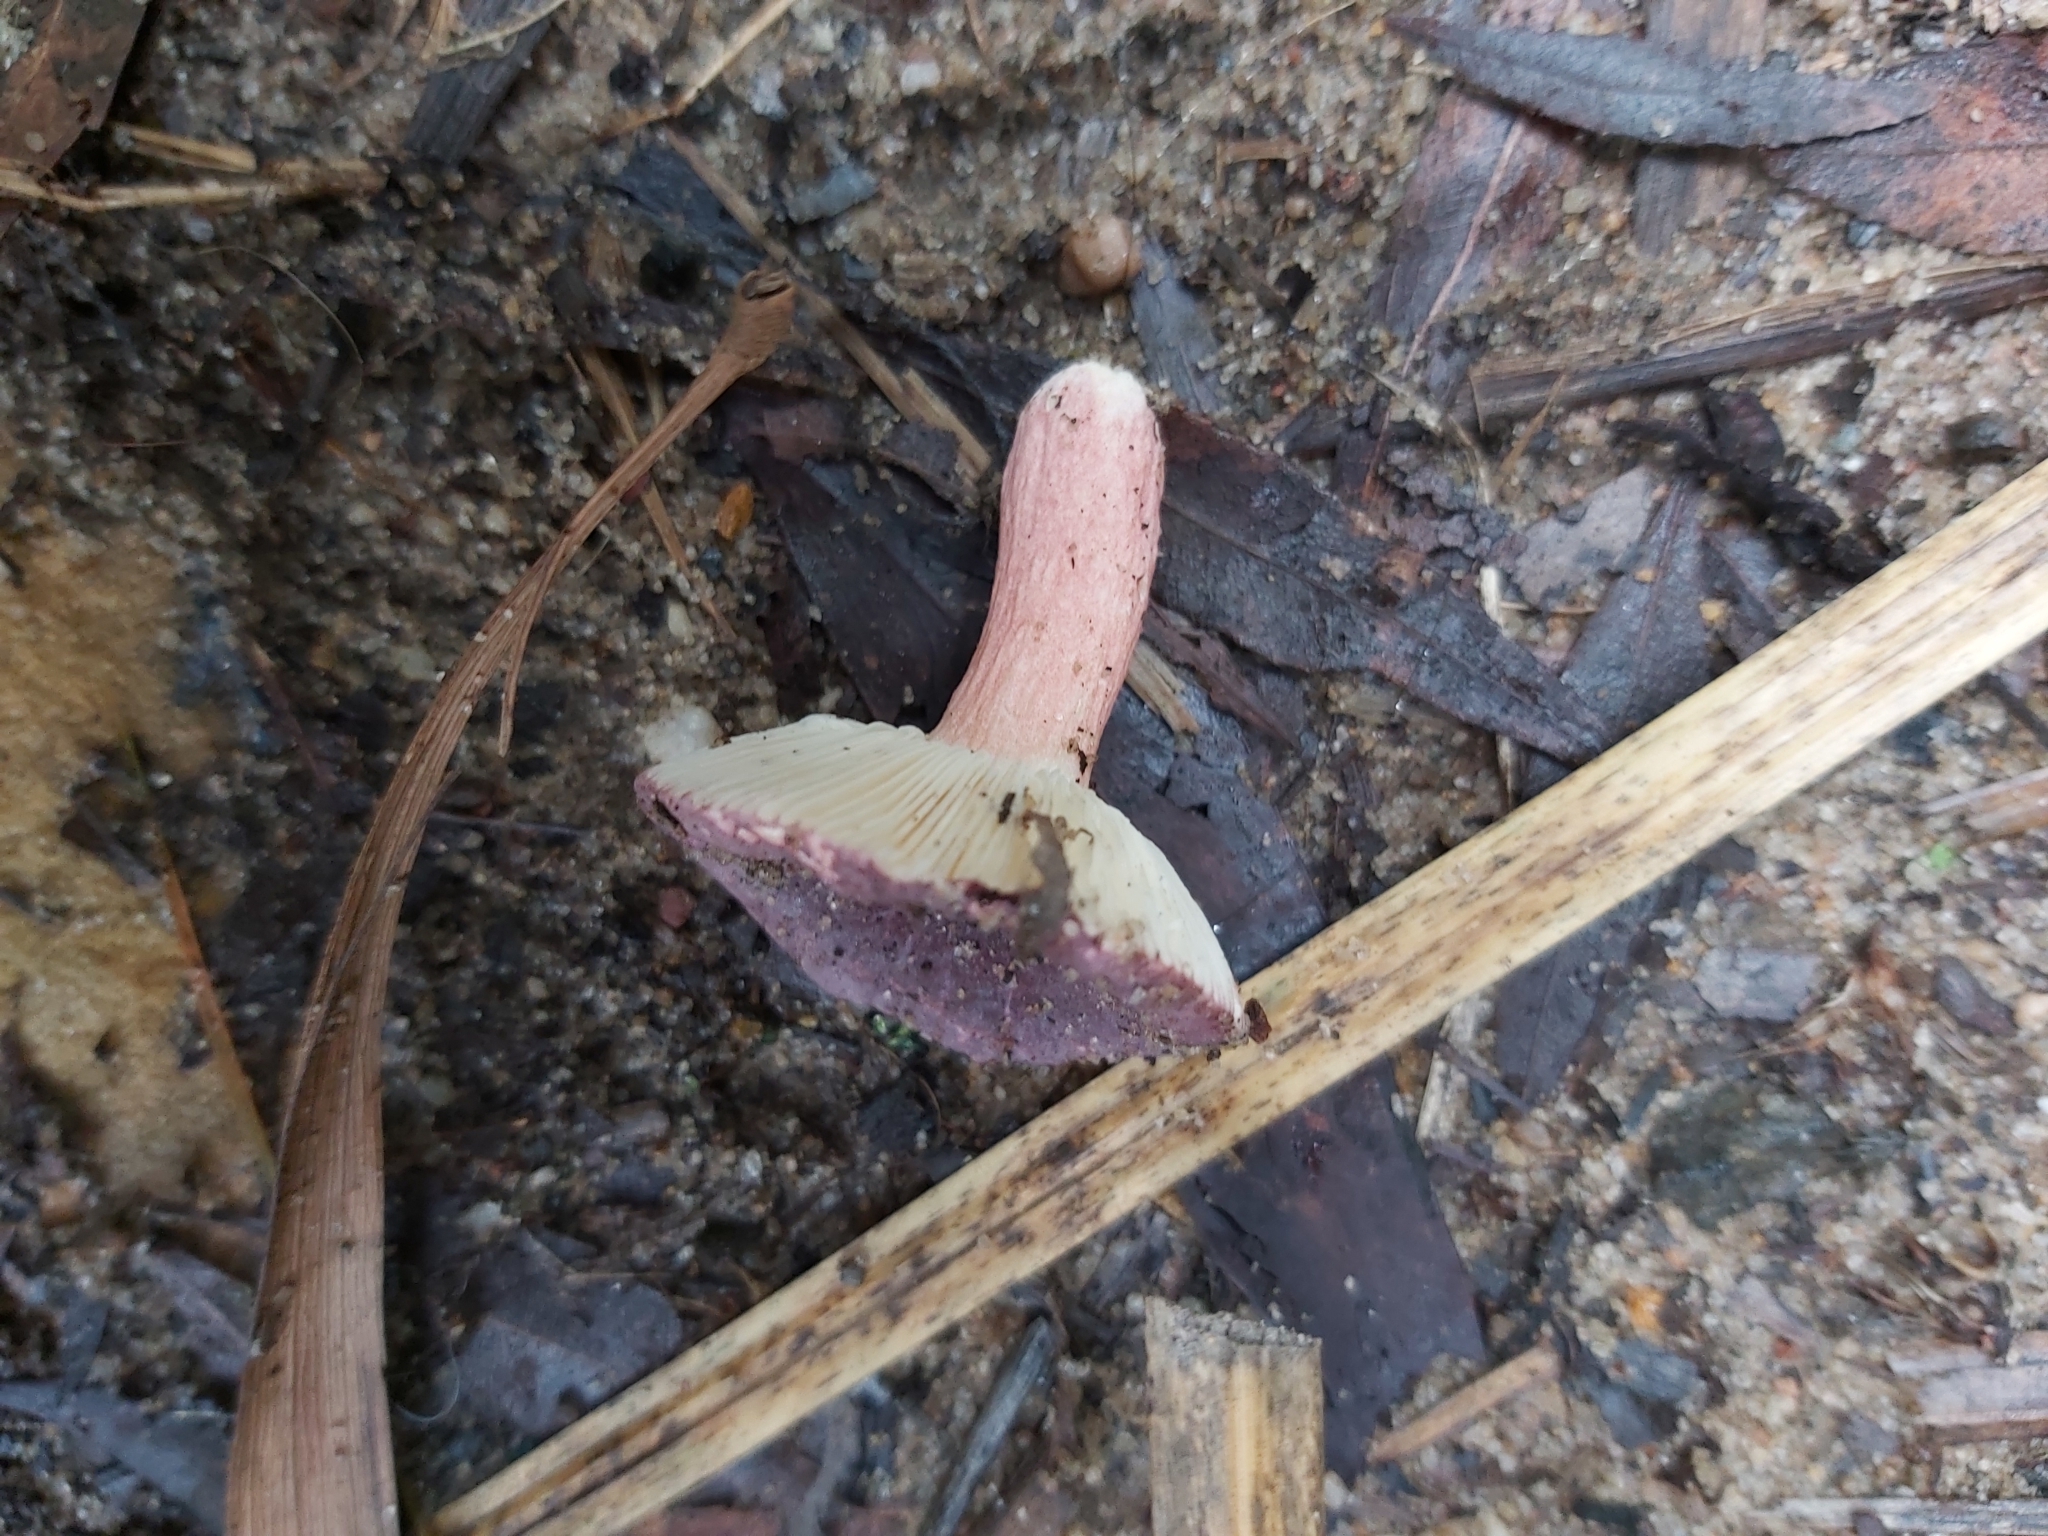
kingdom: Fungi
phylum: Basidiomycota
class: Agaricomycetes
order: Russulales
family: Russulaceae
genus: Russula
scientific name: Russula lenkunya
